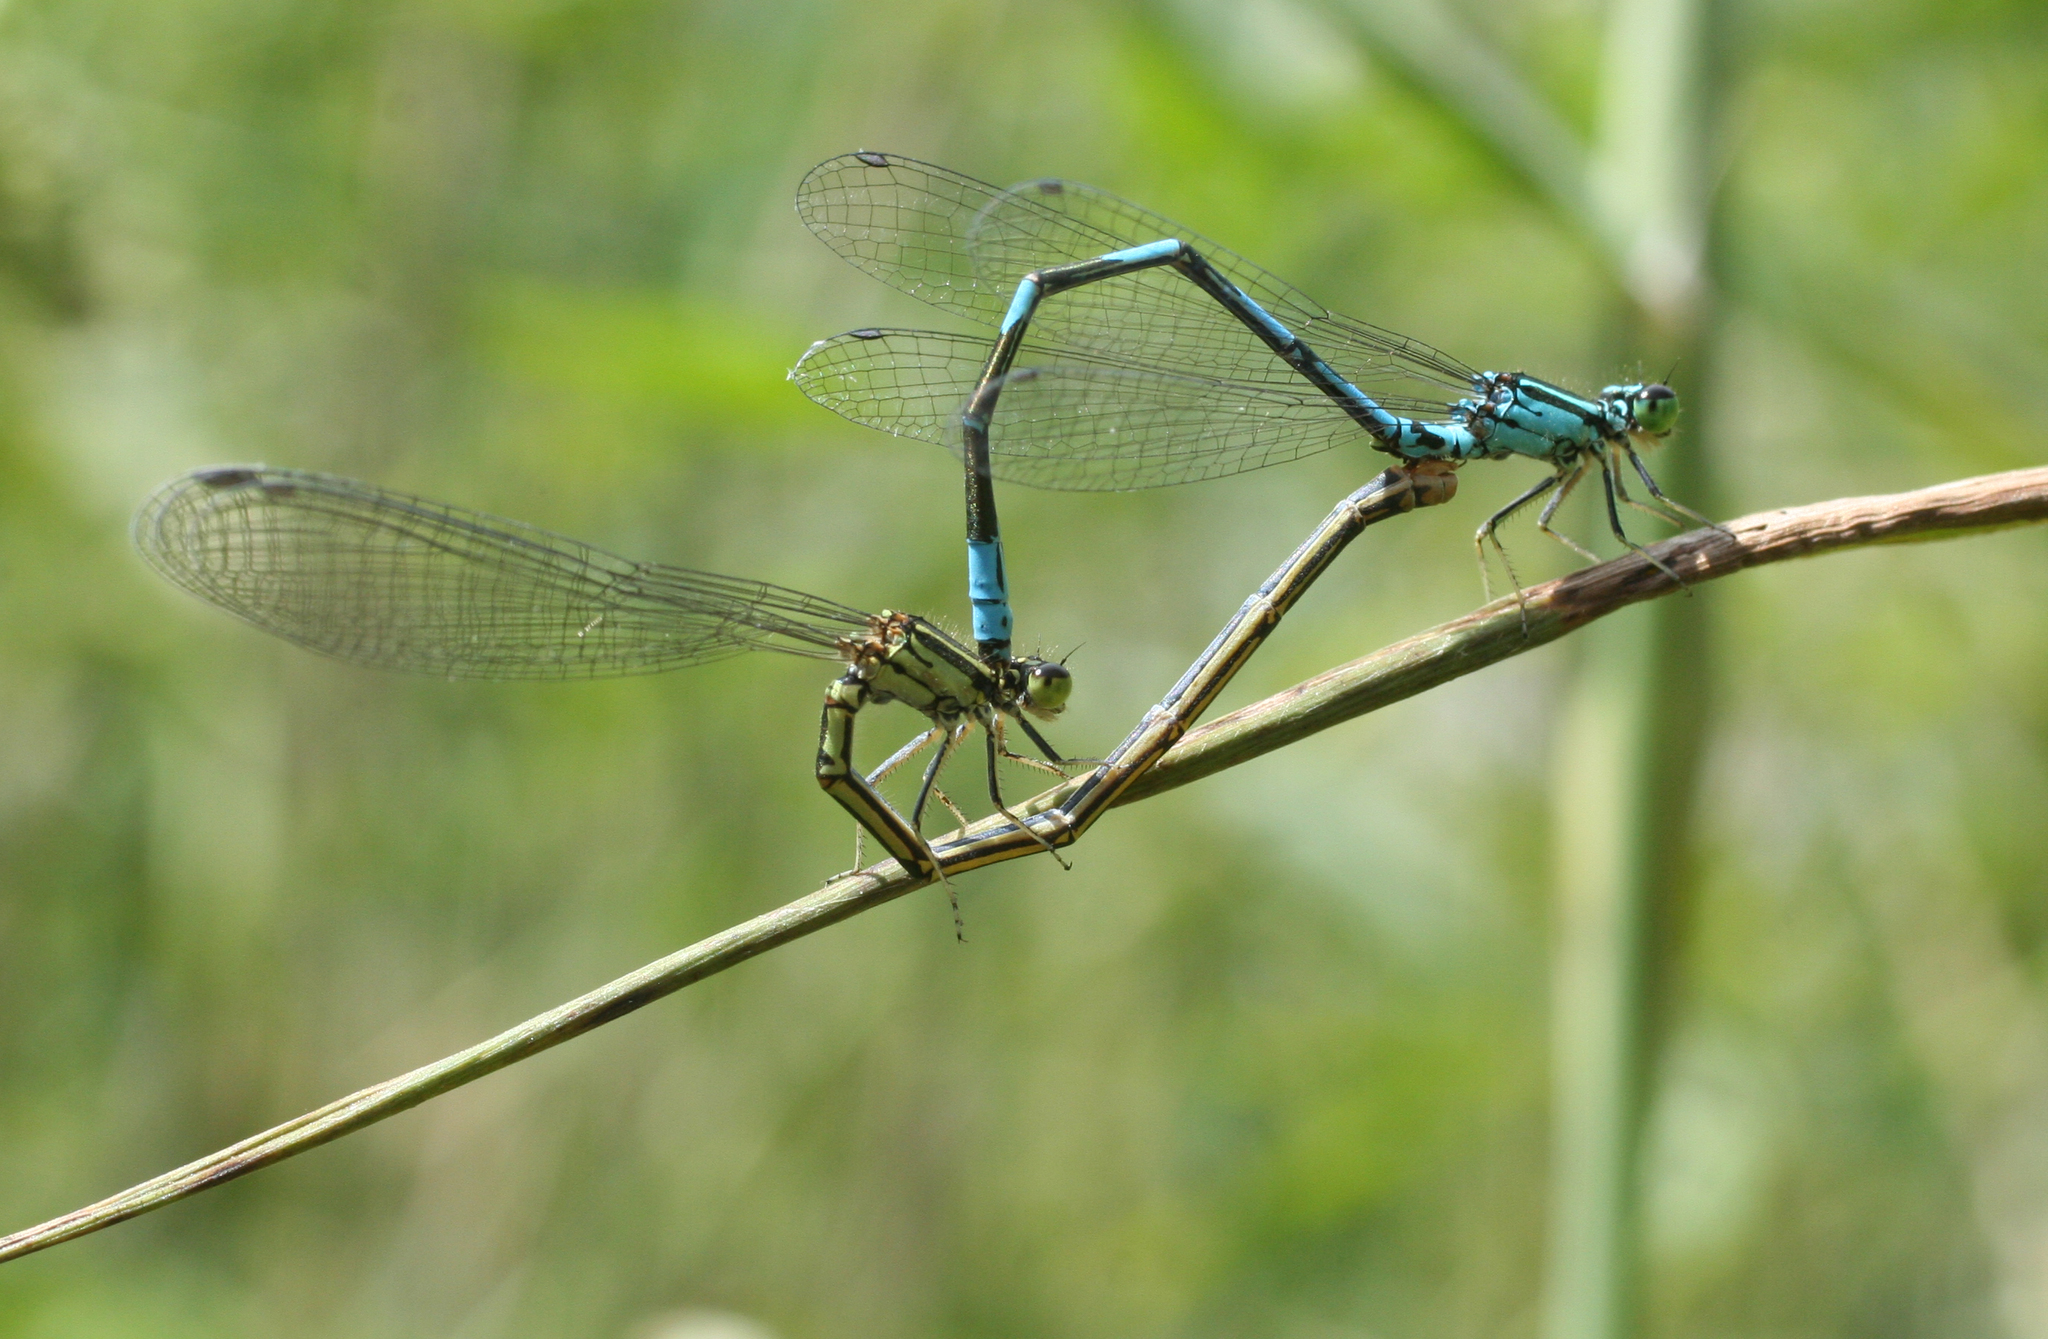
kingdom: Animalia
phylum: Arthropoda
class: Insecta
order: Odonata
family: Coenagrionidae
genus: Coenagrion
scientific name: Coenagrion johanssoni
